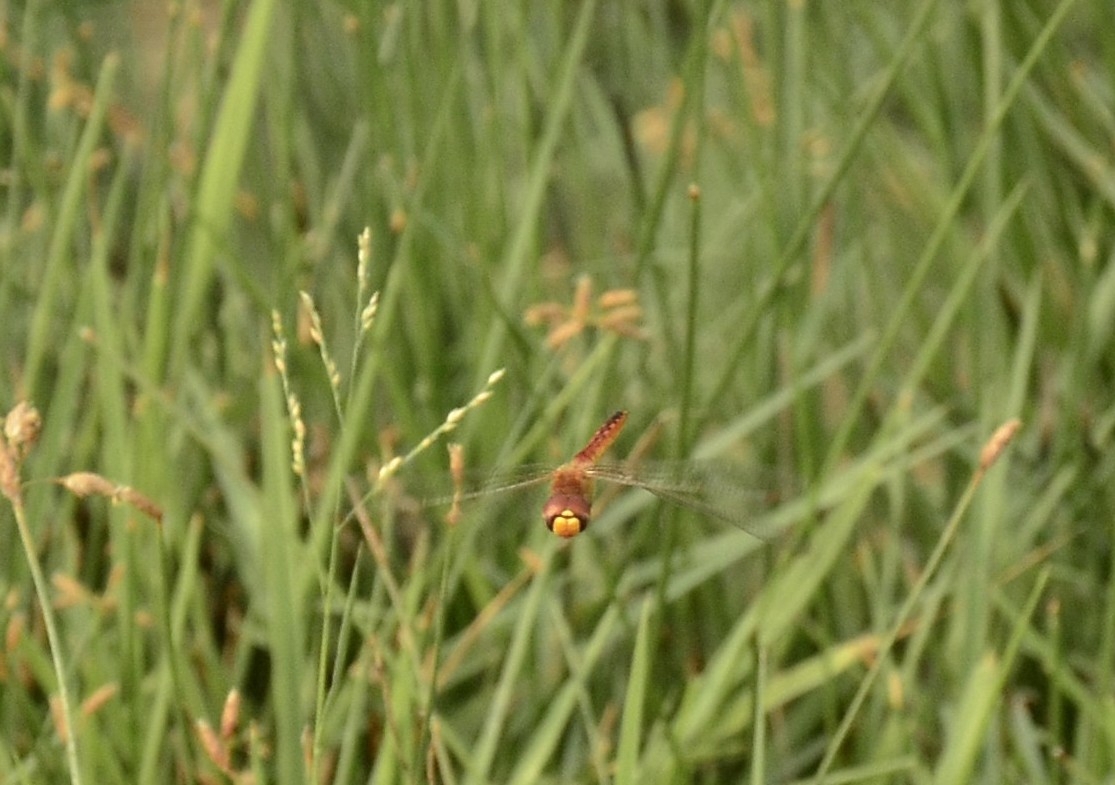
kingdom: Animalia
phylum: Arthropoda
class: Insecta
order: Odonata
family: Libellulidae
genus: Pantala
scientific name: Pantala flavescens
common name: Wandering glider
